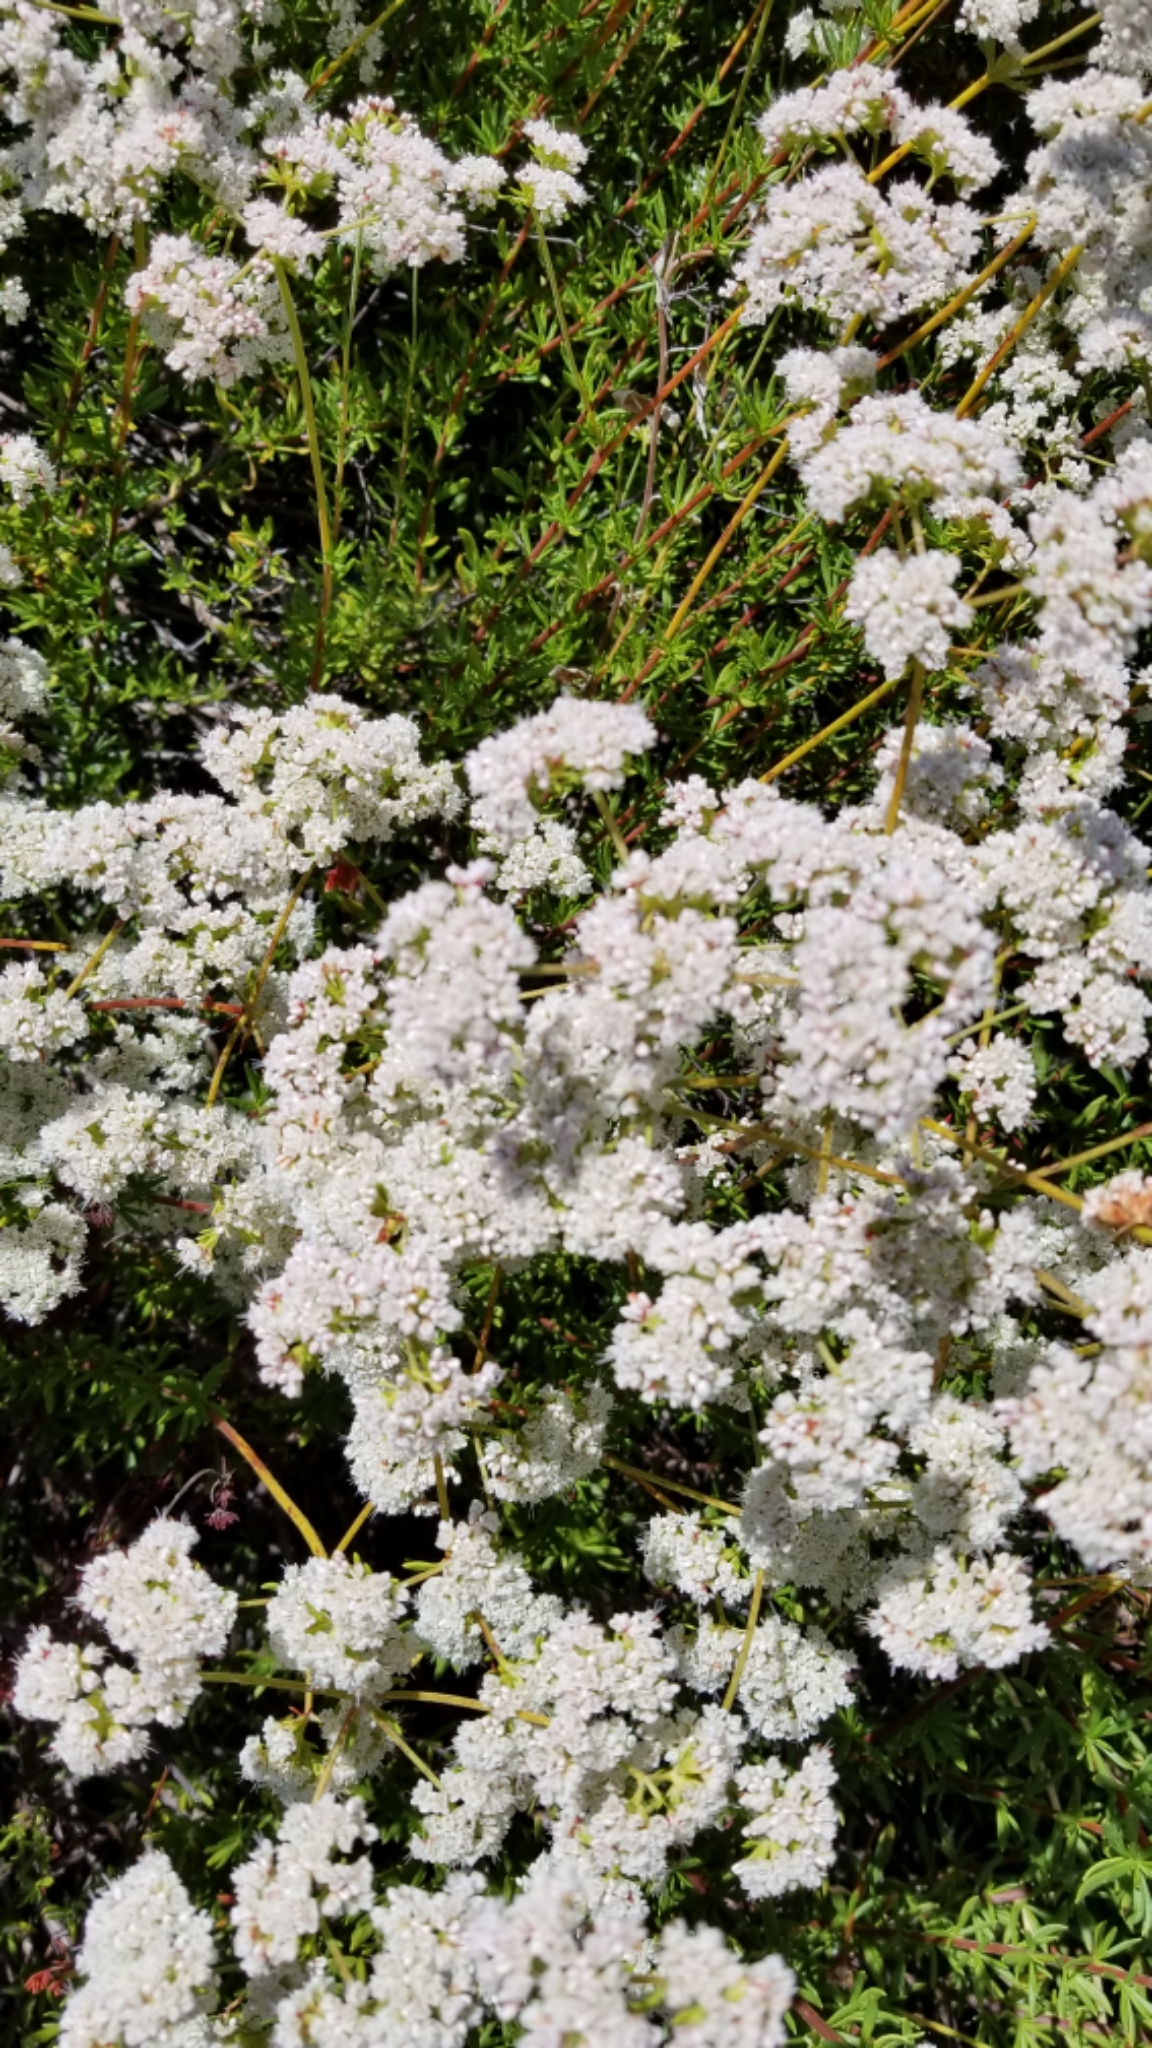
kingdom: Plantae
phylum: Tracheophyta
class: Magnoliopsida
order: Caryophyllales
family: Polygonaceae
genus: Eriogonum
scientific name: Eriogonum fasciculatum
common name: California wild buckwheat
